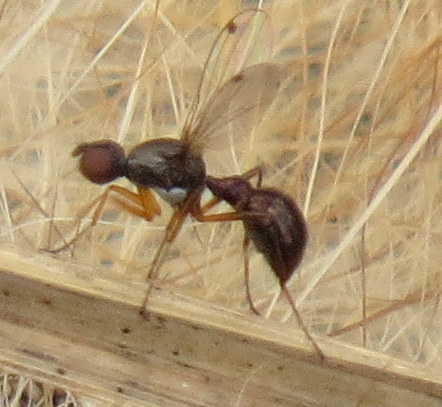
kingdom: Animalia
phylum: Arthropoda
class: Insecta
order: Diptera
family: Sepsidae
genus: Sepsis
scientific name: Sepsis
